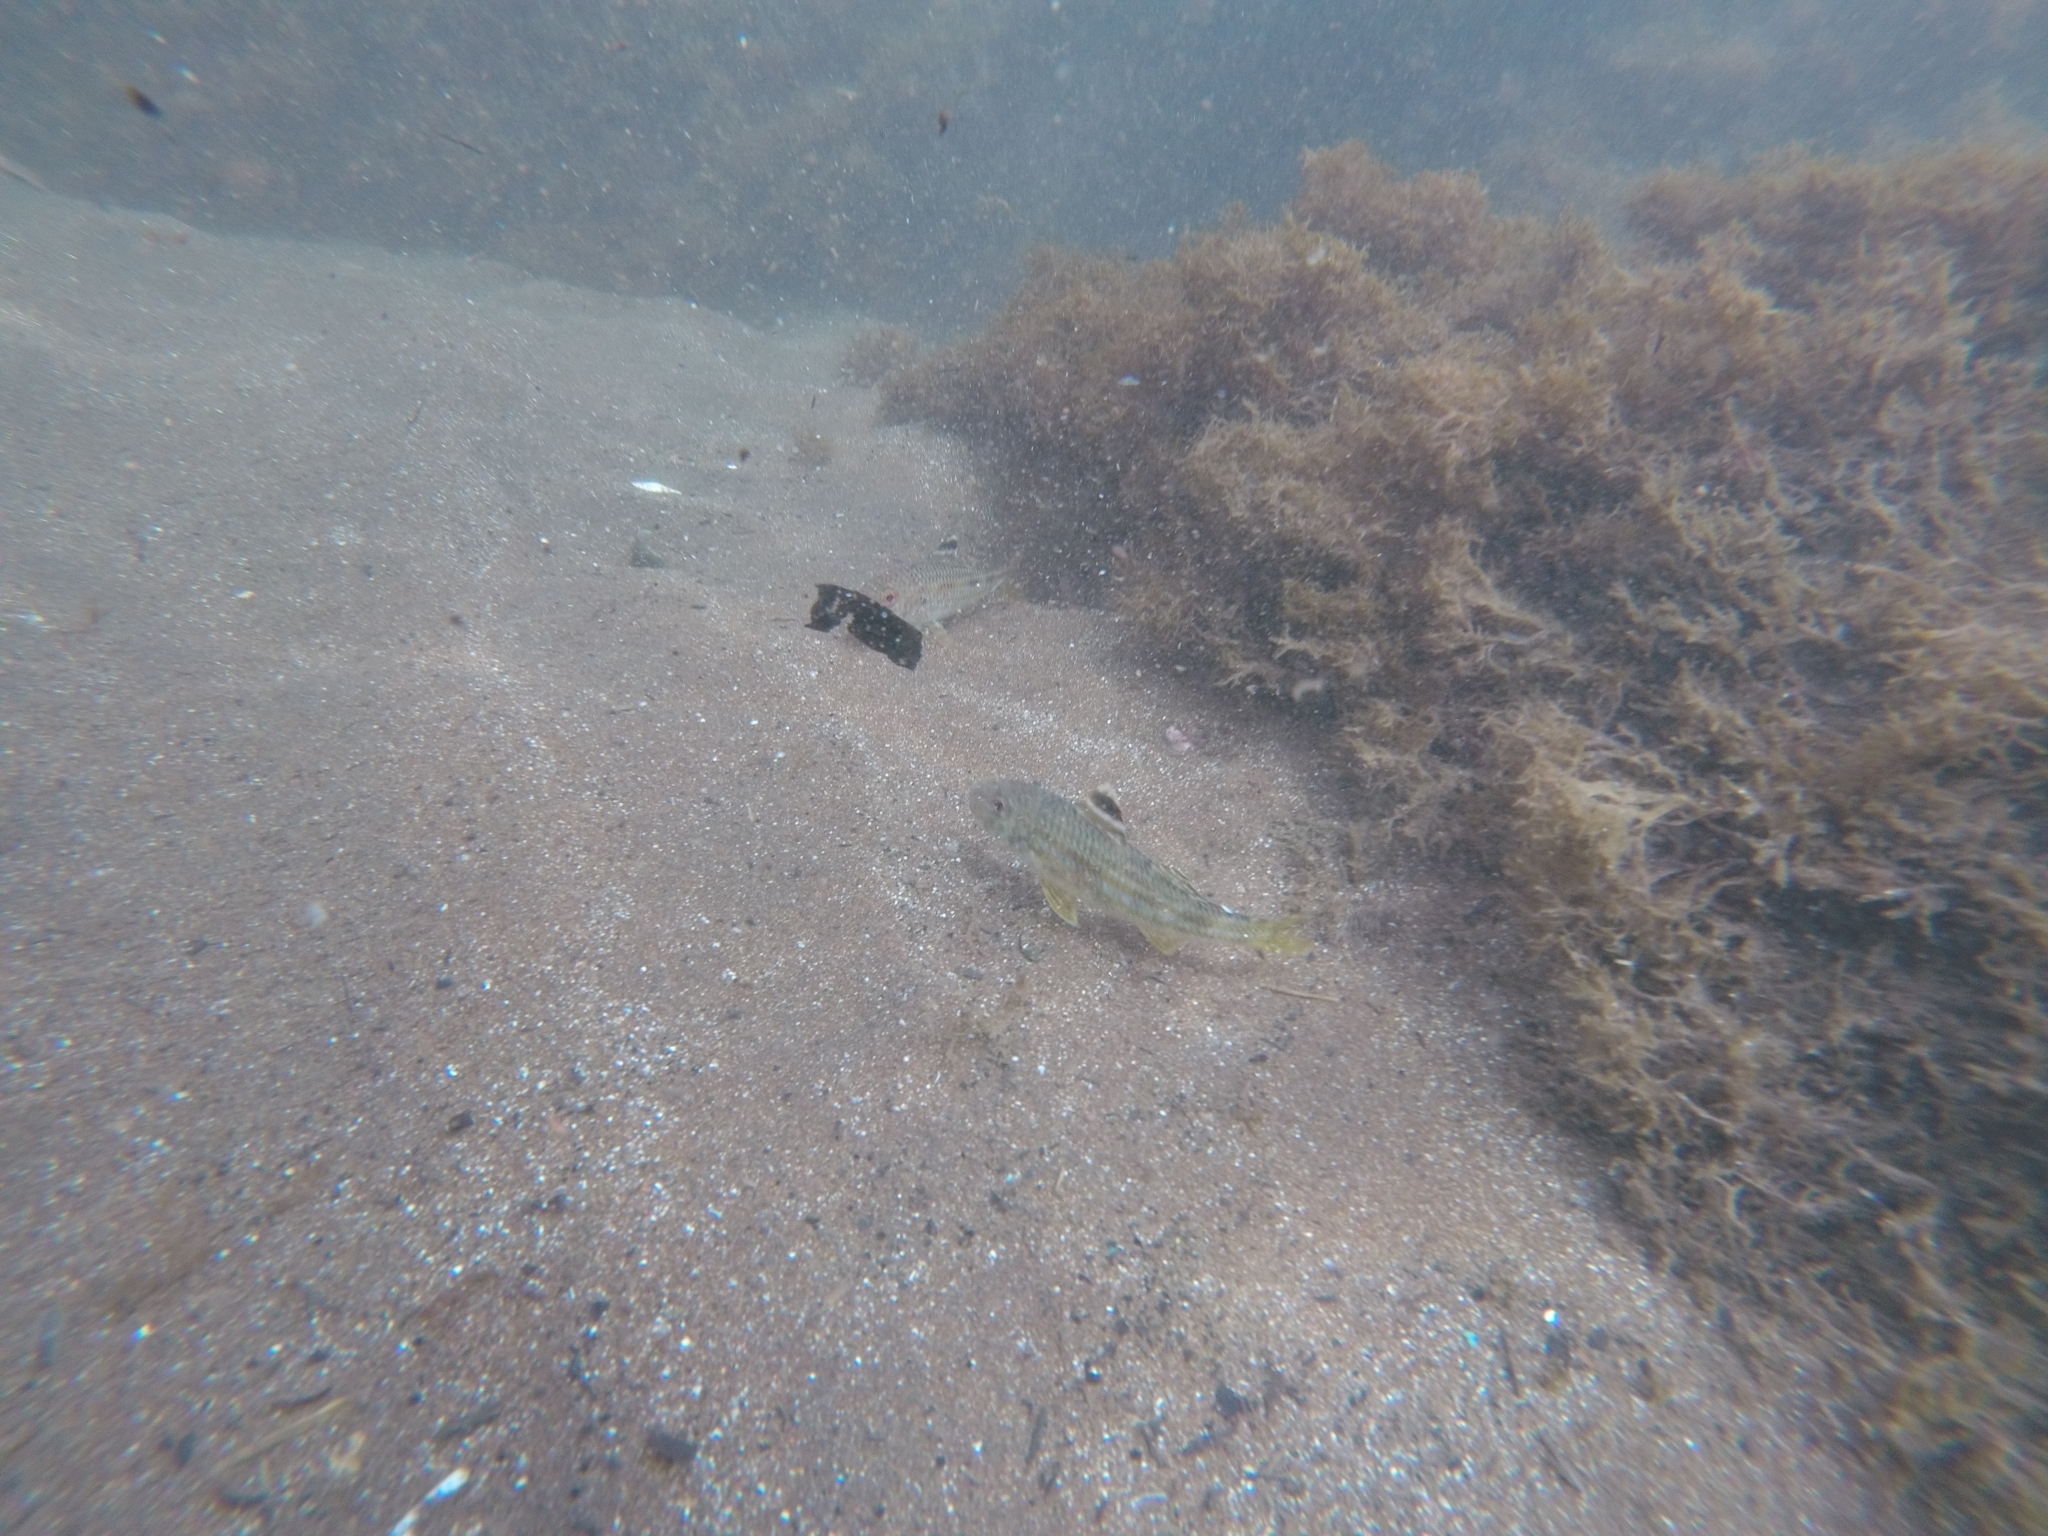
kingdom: Animalia
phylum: Chordata
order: Perciformes
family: Mullidae
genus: Mullus
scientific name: Mullus surmuletus
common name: Red mullet
